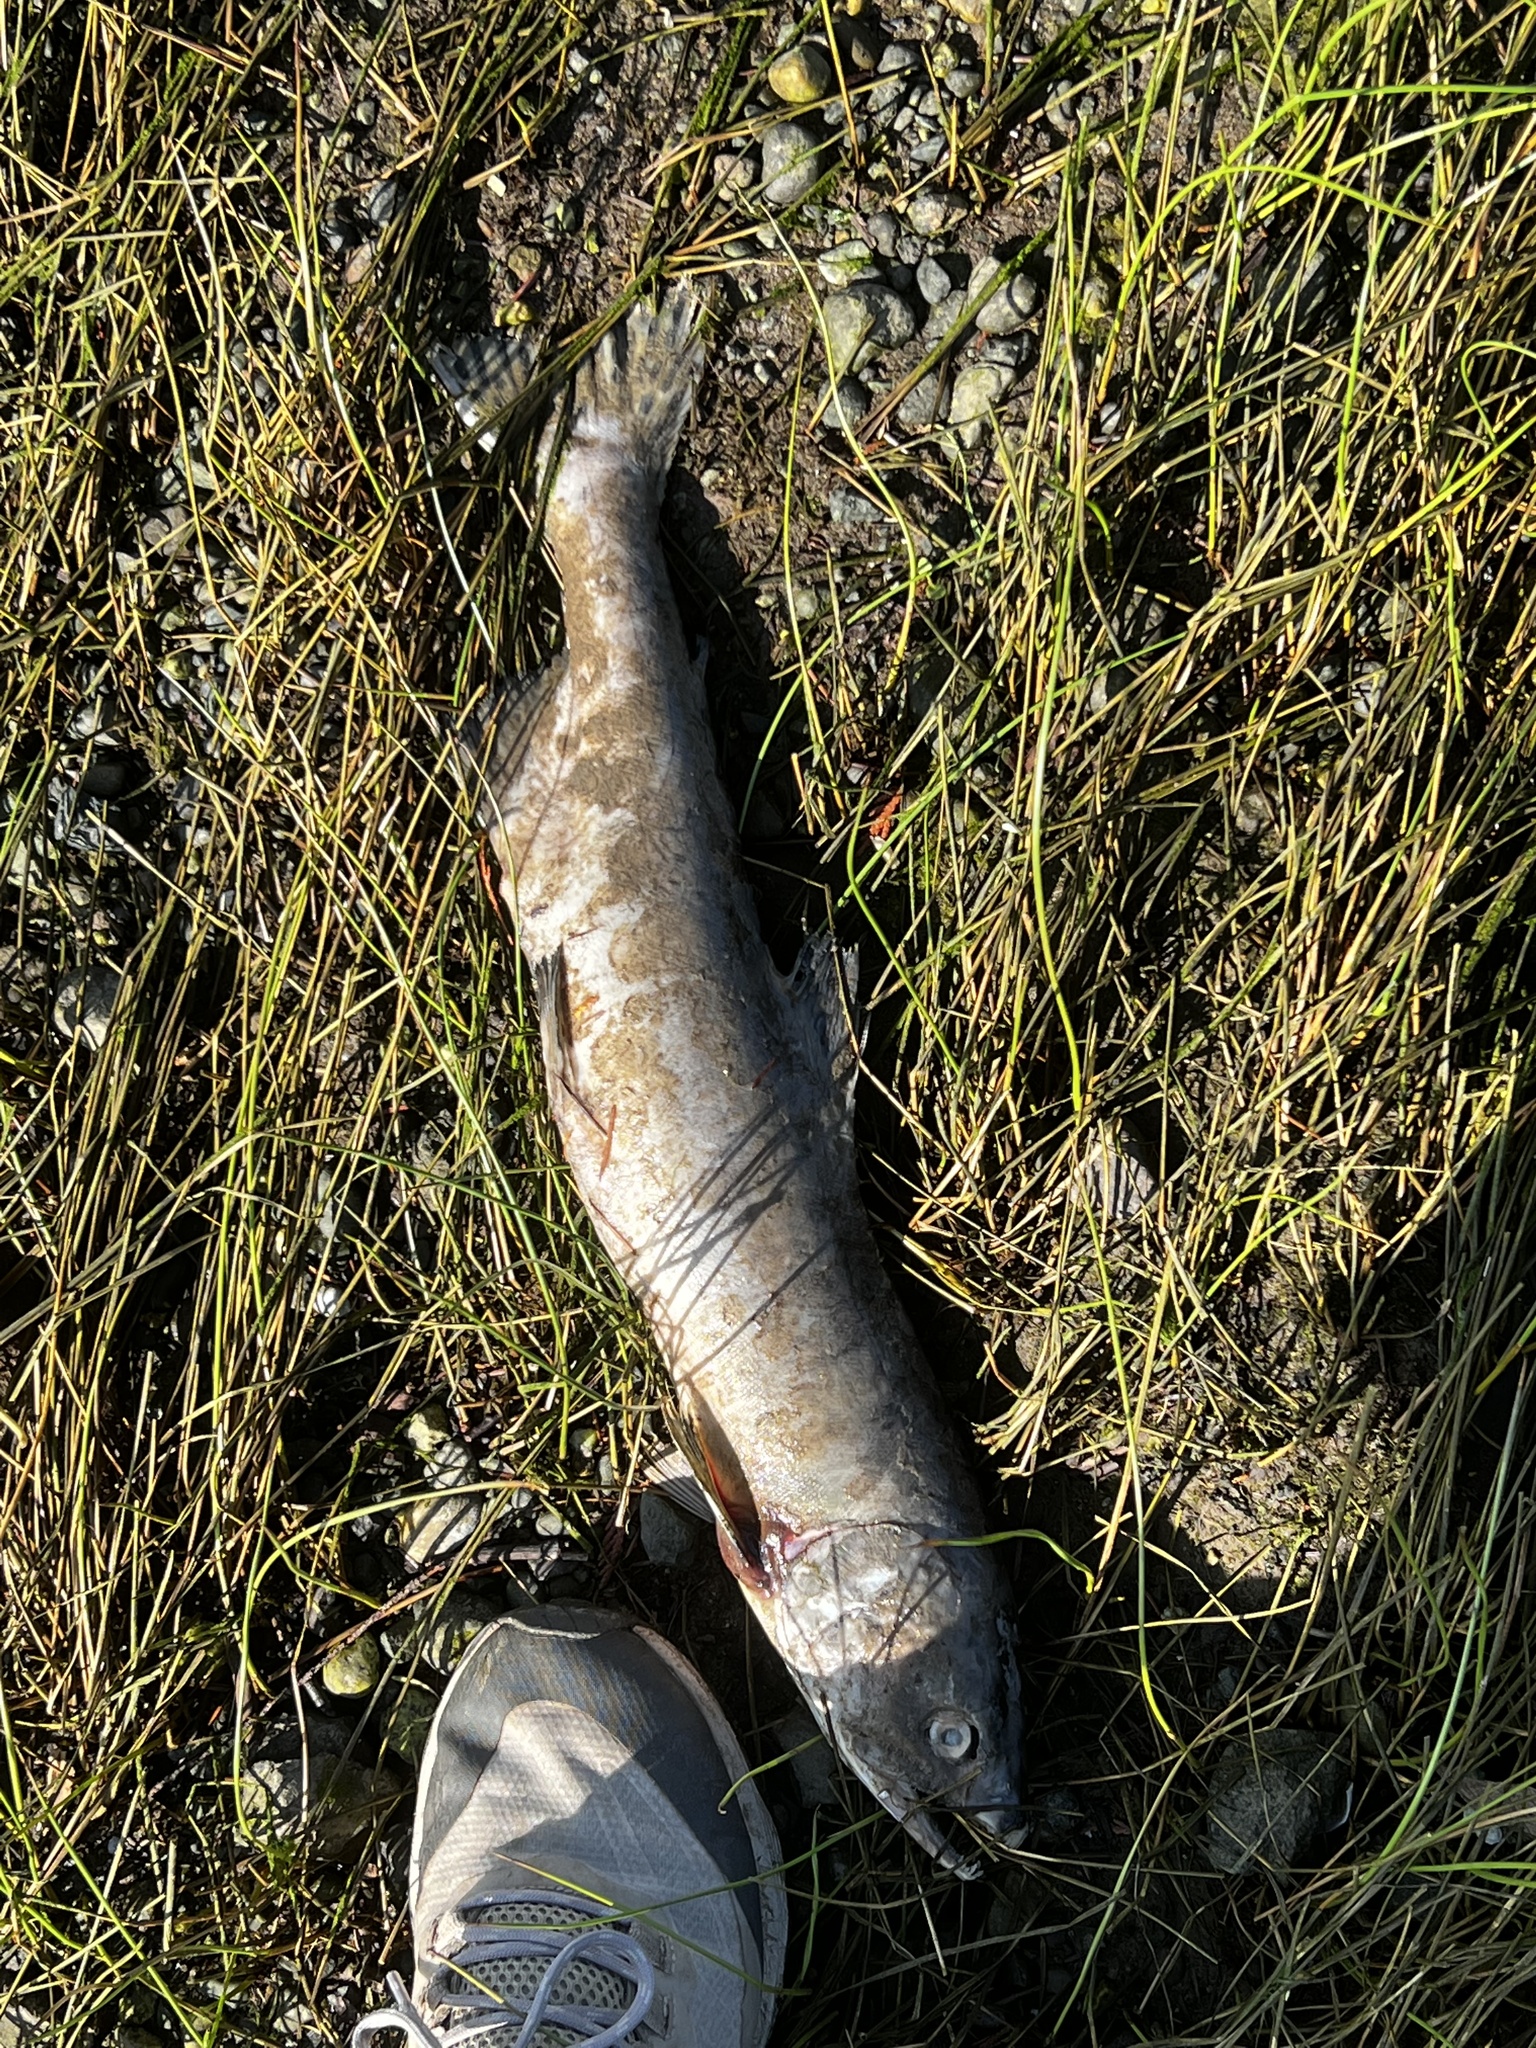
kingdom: Animalia
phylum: Chordata
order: Salmoniformes
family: Salmonidae
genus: Oncorhynchus
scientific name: Oncorhynchus gorbuscha
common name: Humpback salmon
